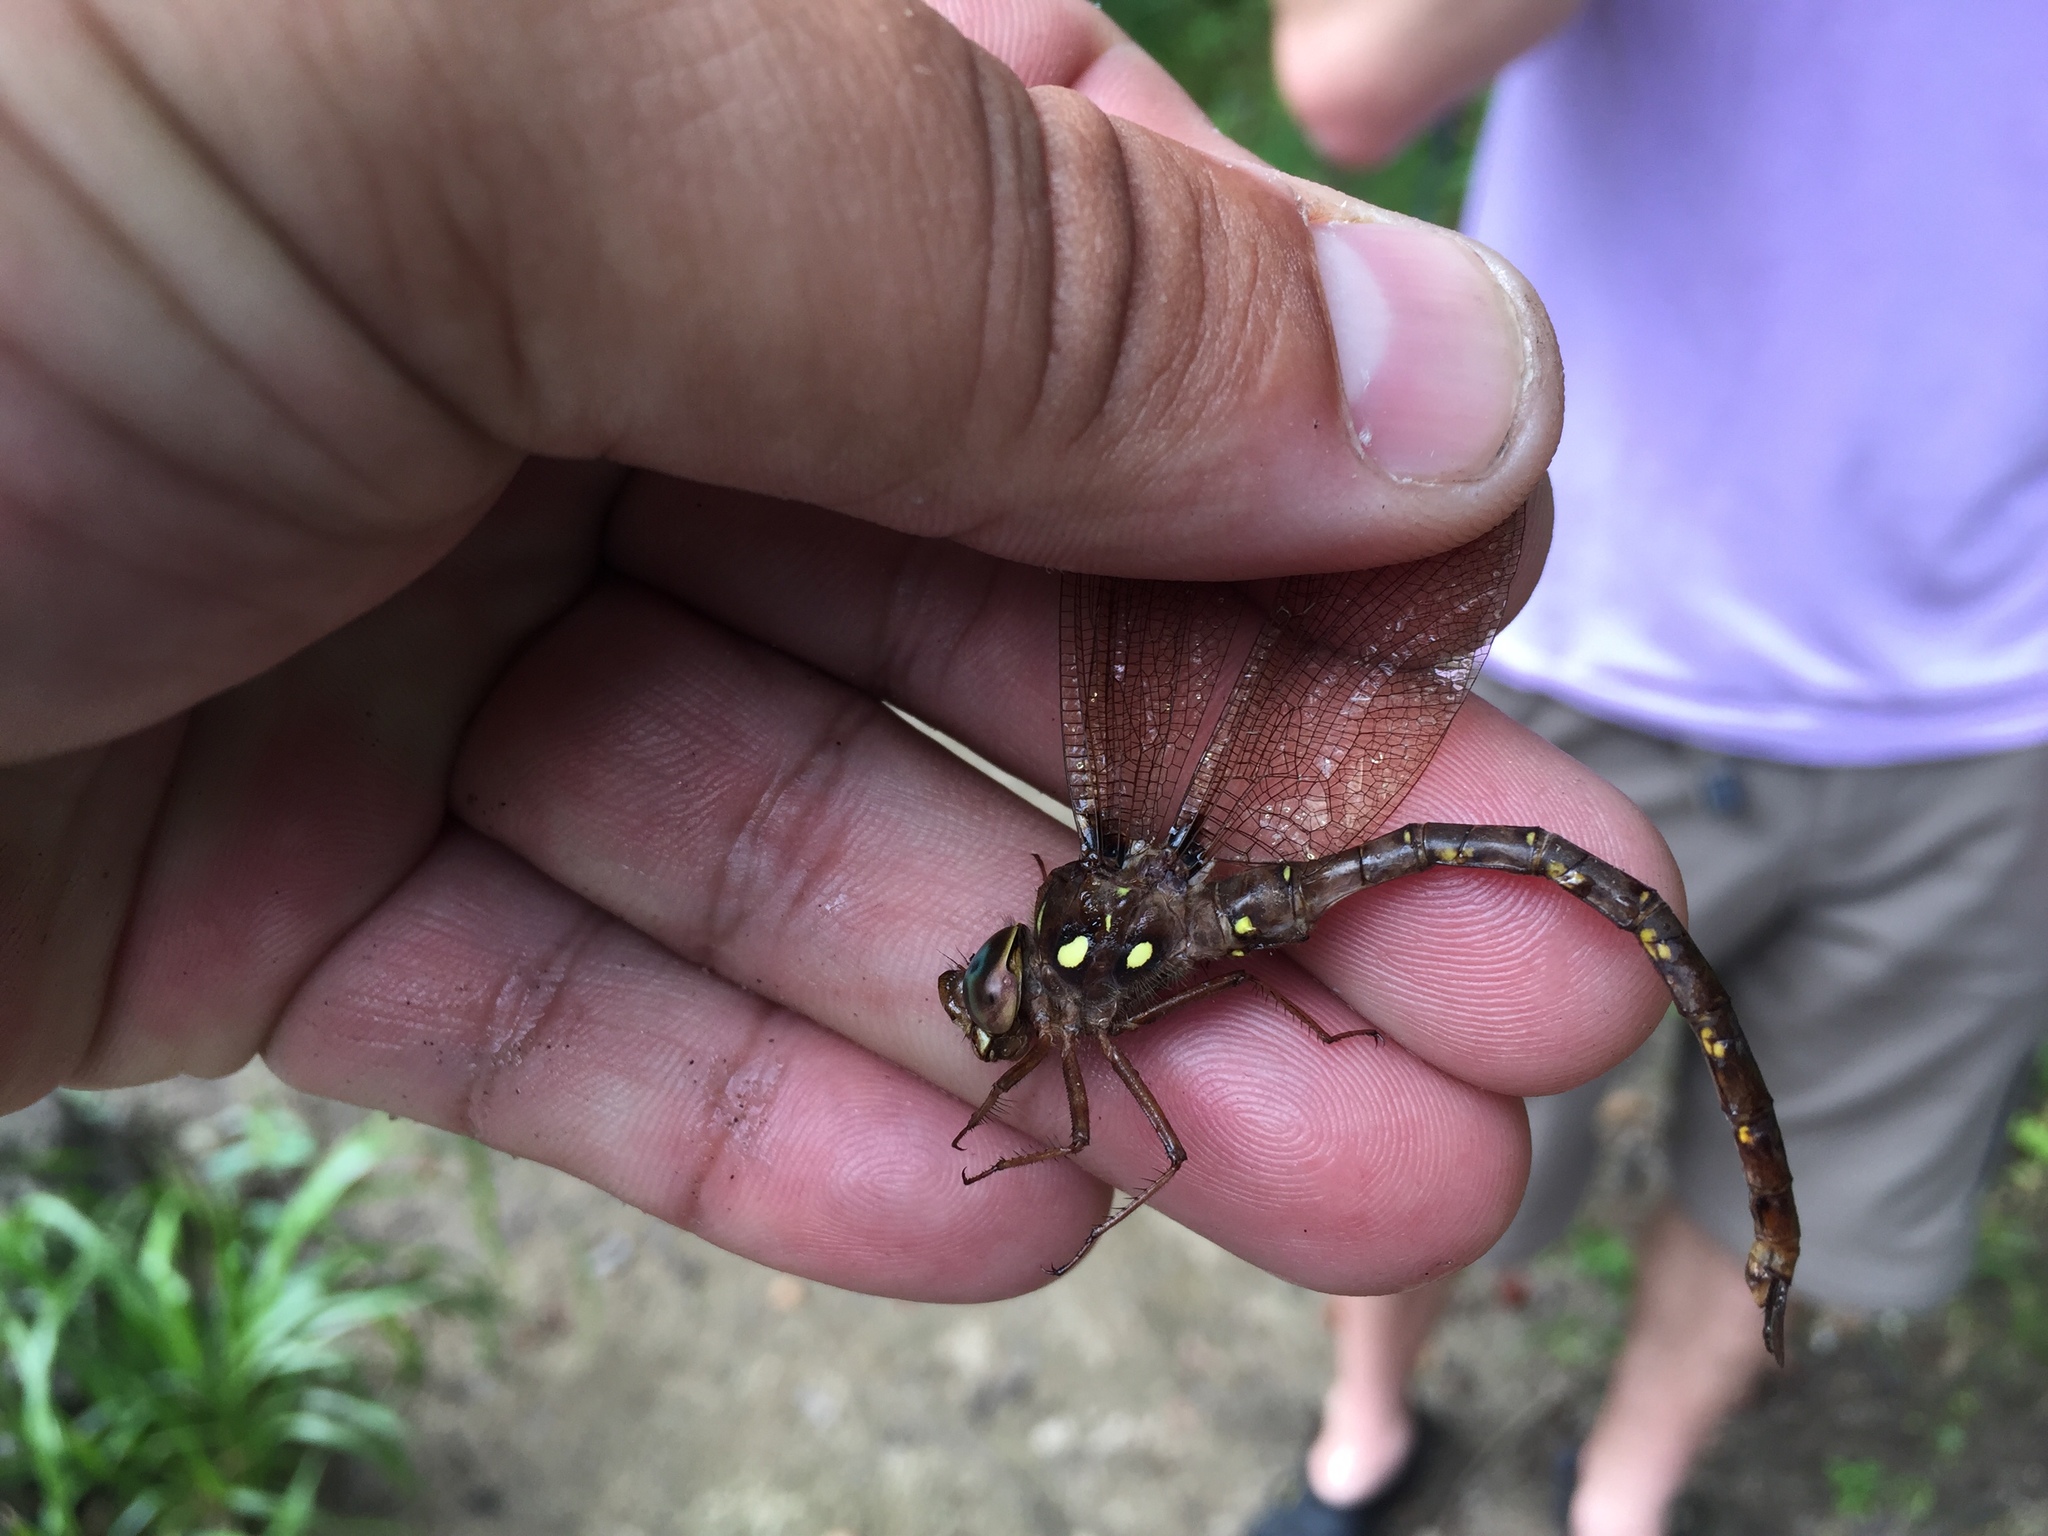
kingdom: Animalia
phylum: Arthropoda
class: Insecta
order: Odonata
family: Aeshnidae
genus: Boyeria
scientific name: Boyeria vinosa
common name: Fawn darner
